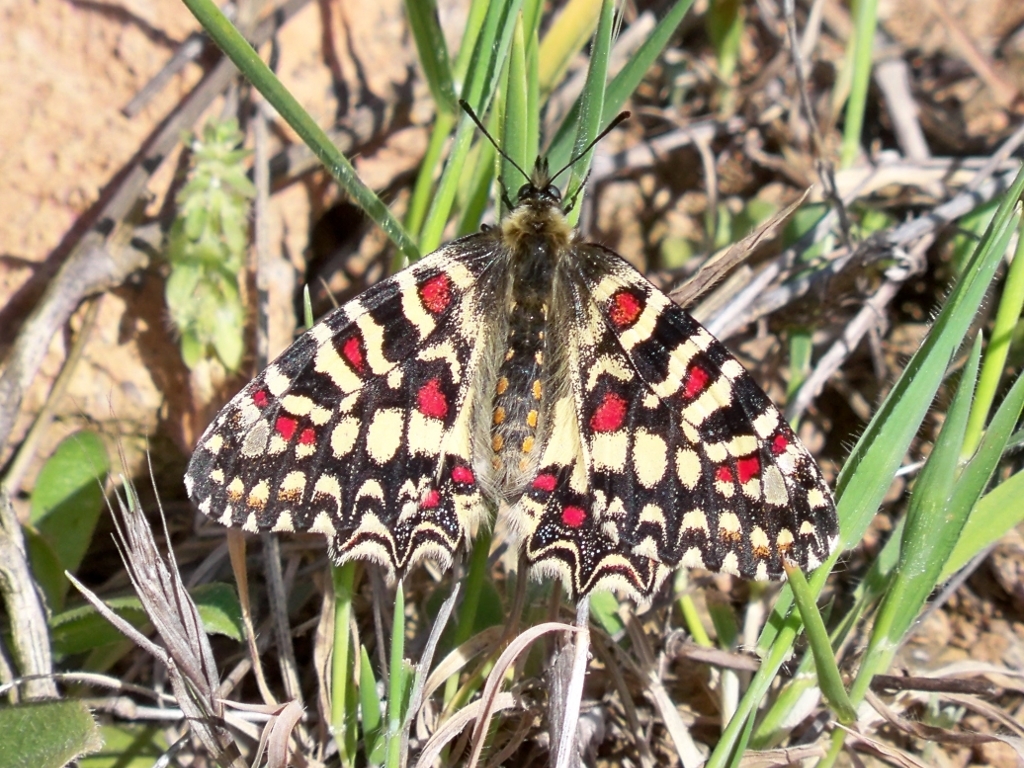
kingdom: Animalia
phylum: Arthropoda
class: Insecta
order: Lepidoptera
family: Papilionidae
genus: Zerynthia
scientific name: Zerynthia rumina
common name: Spanish festoon
